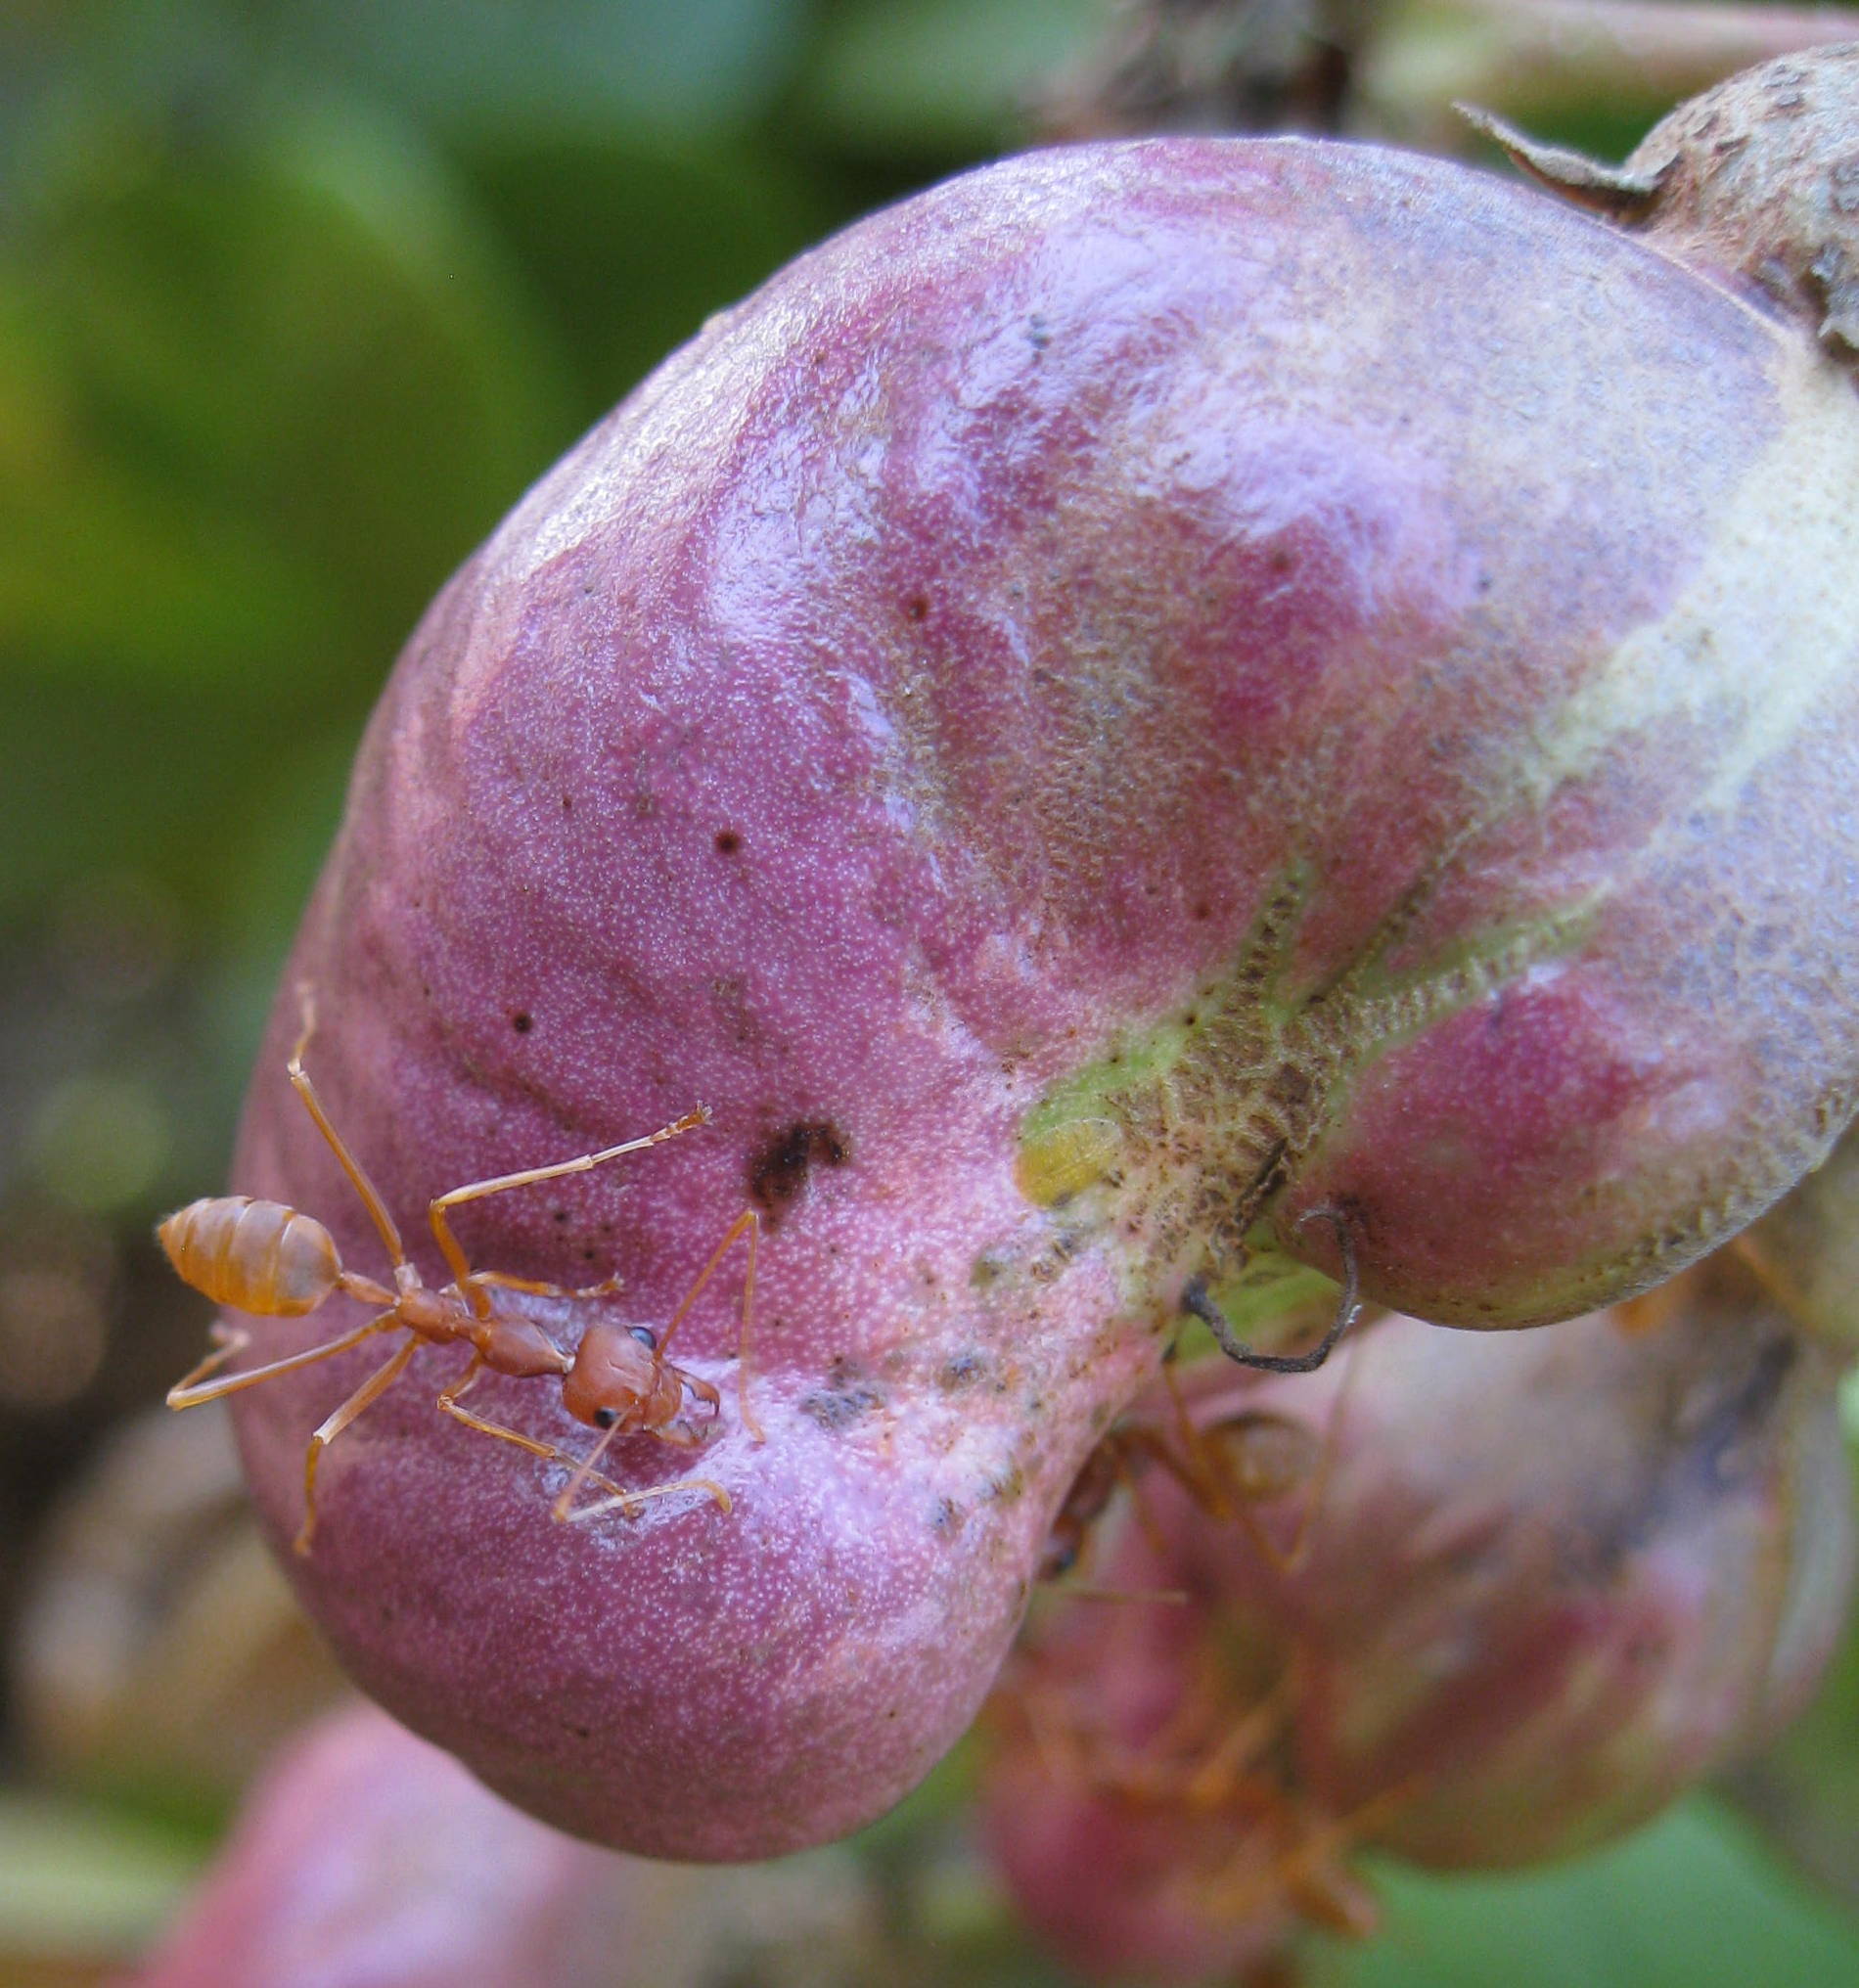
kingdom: Animalia
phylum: Arthropoda
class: Insecta
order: Hymenoptera
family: Formicidae
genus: Oecophylla
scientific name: Oecophylla longinoda
